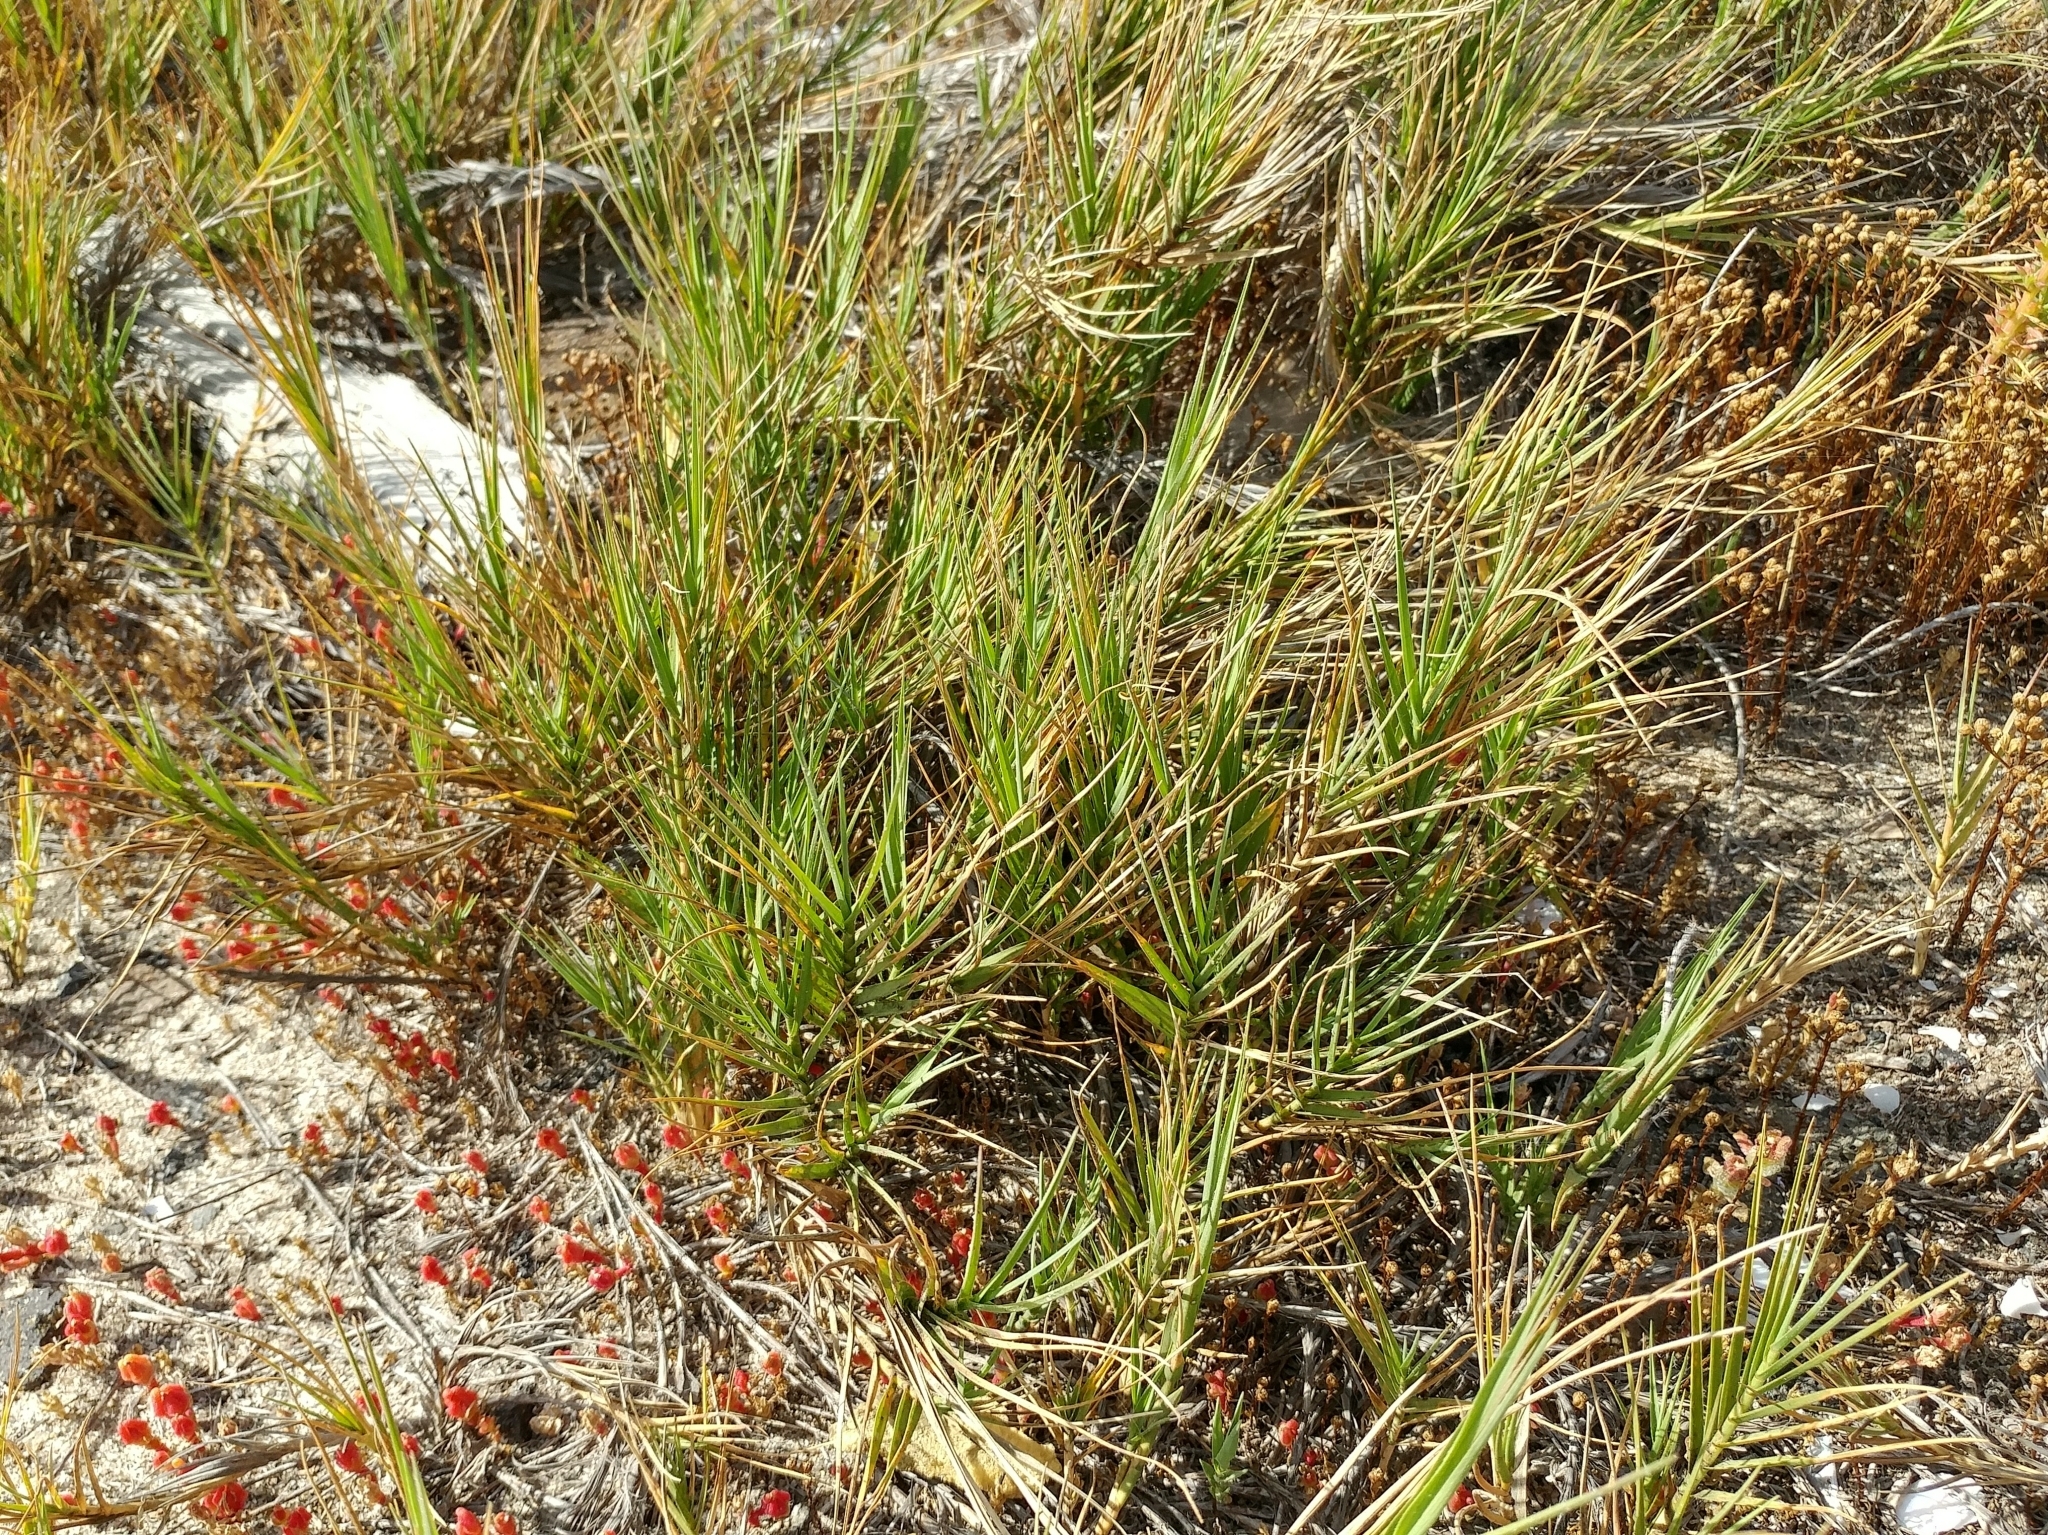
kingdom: Plantae
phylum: Tracheophyta
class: Liliopsida
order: Poales
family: Poaceae
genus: Distichlis
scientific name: Distichlis spicata
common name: Saltgrass
